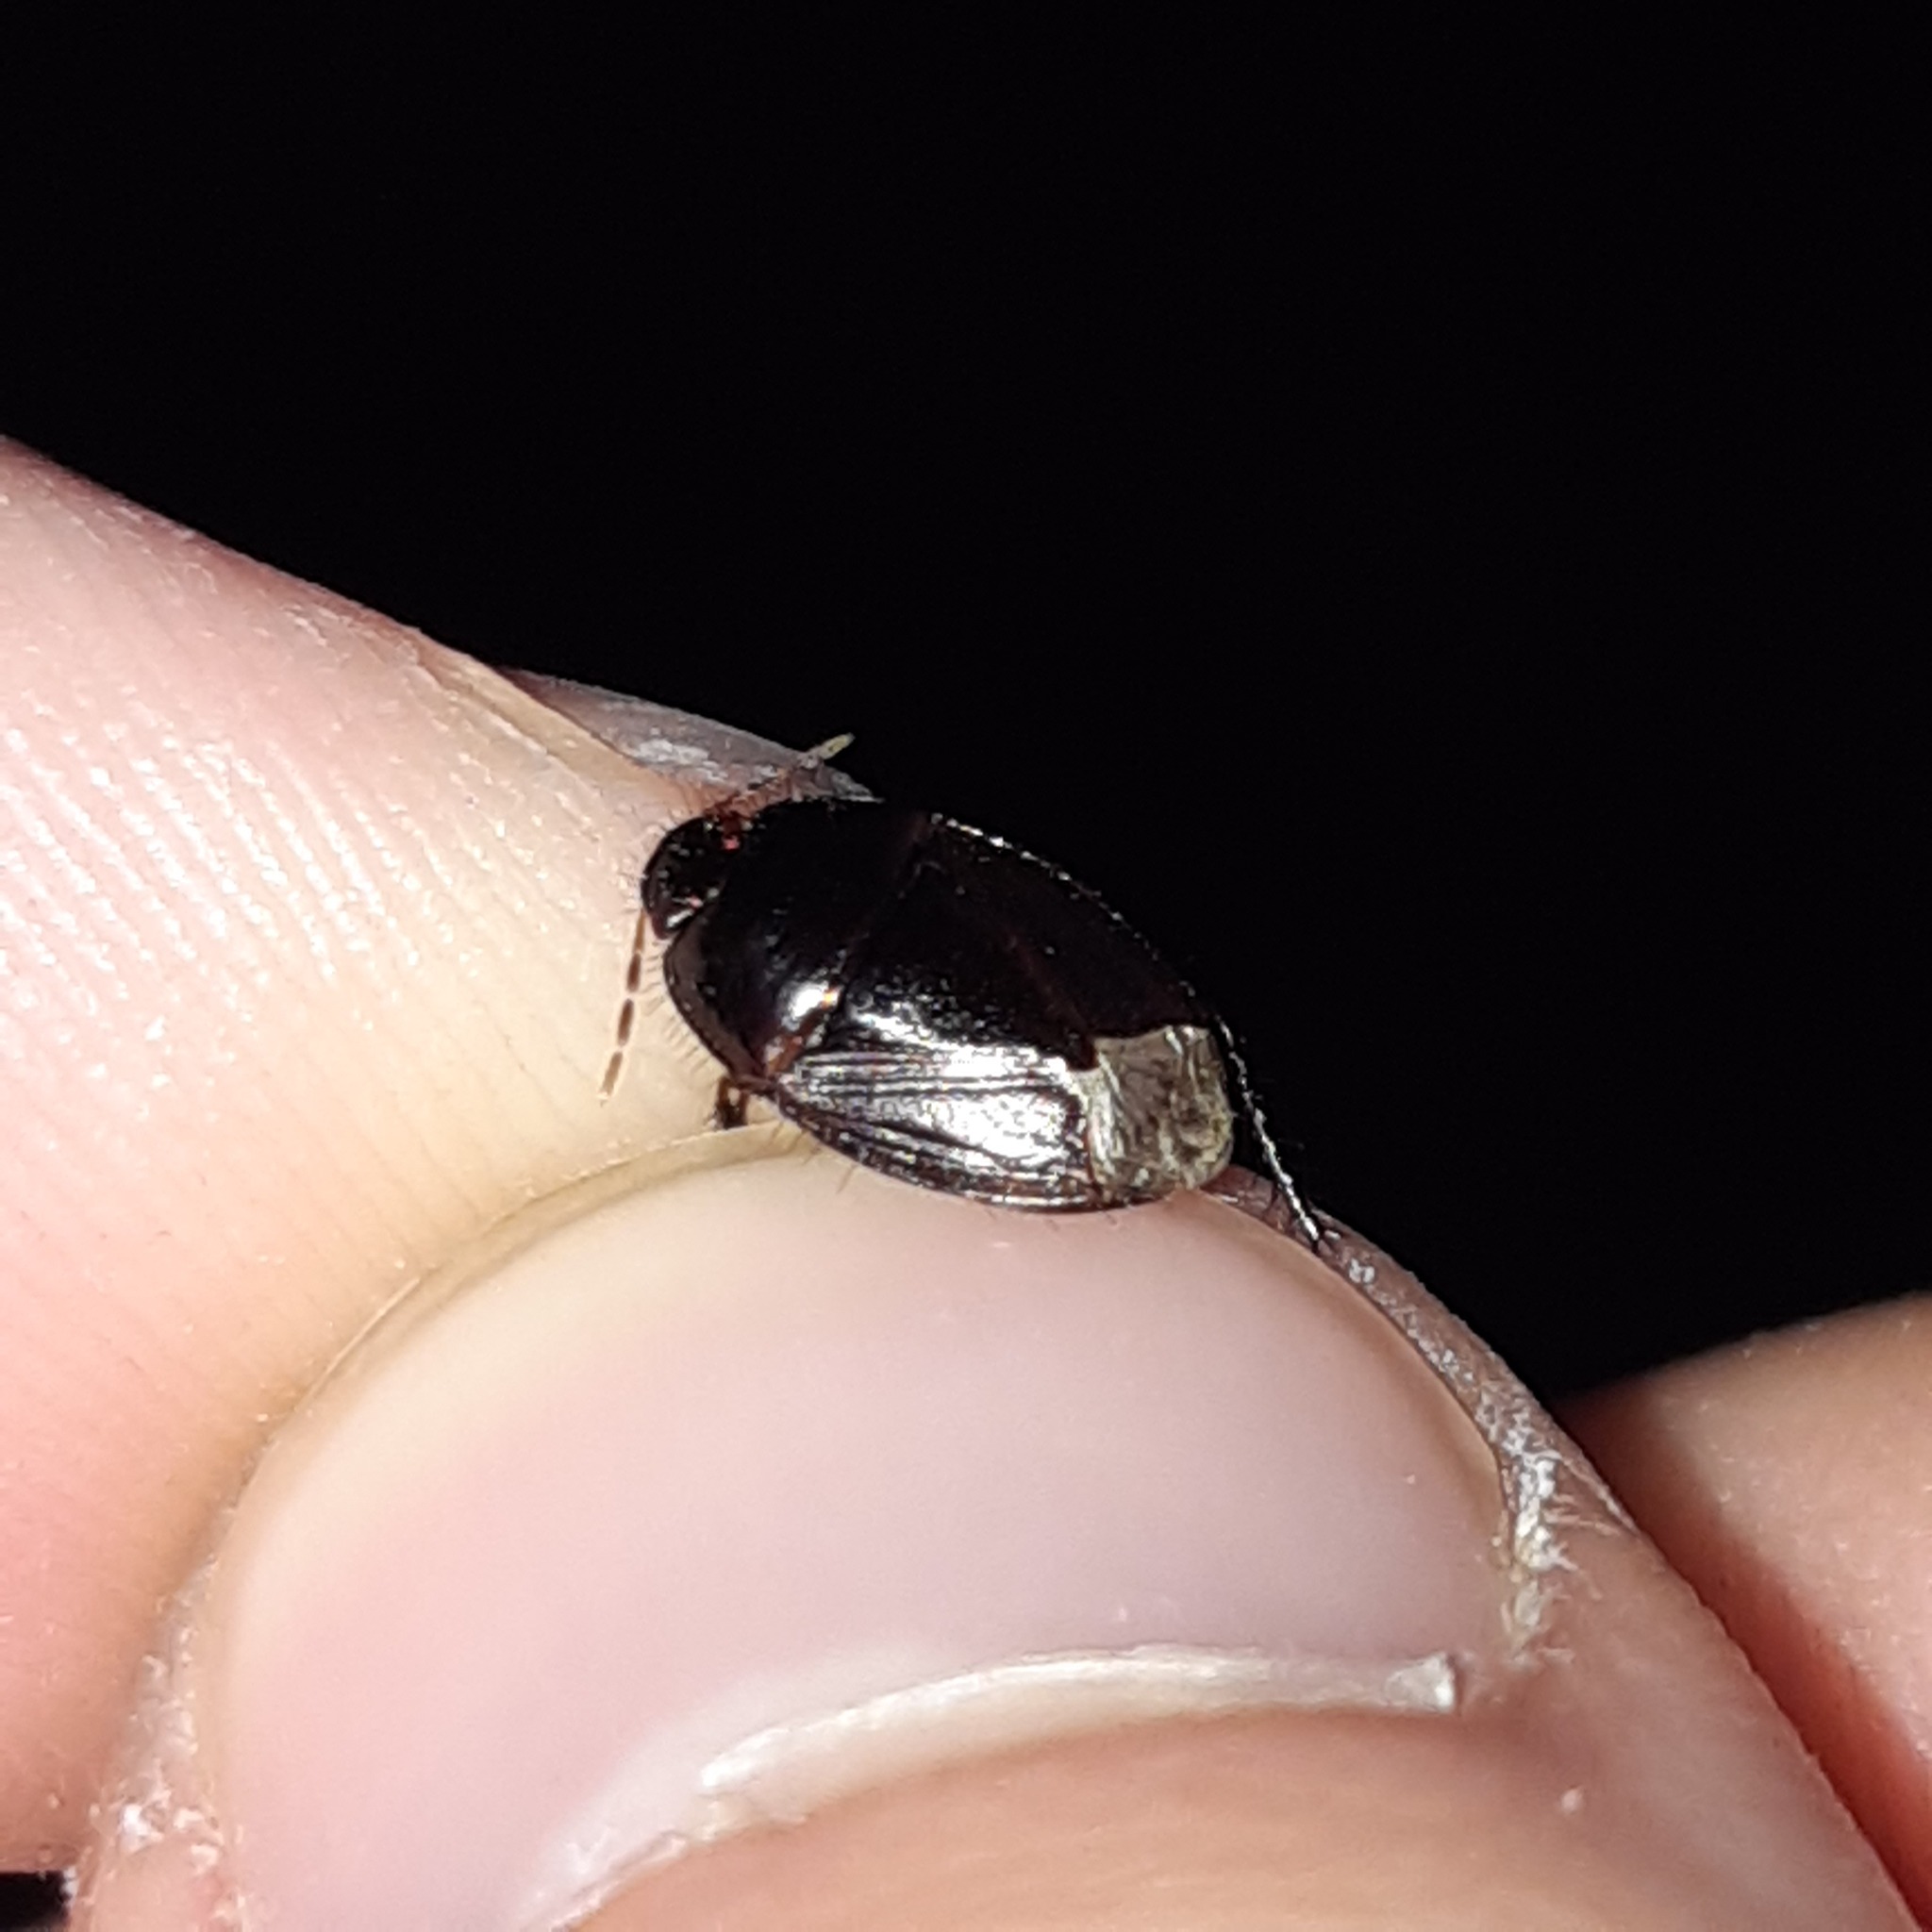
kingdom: Animalia
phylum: Arthropoda
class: Insecta
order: Hemiptera
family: Cydnidae
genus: Macroscytus
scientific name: Macroscytus brunneus
